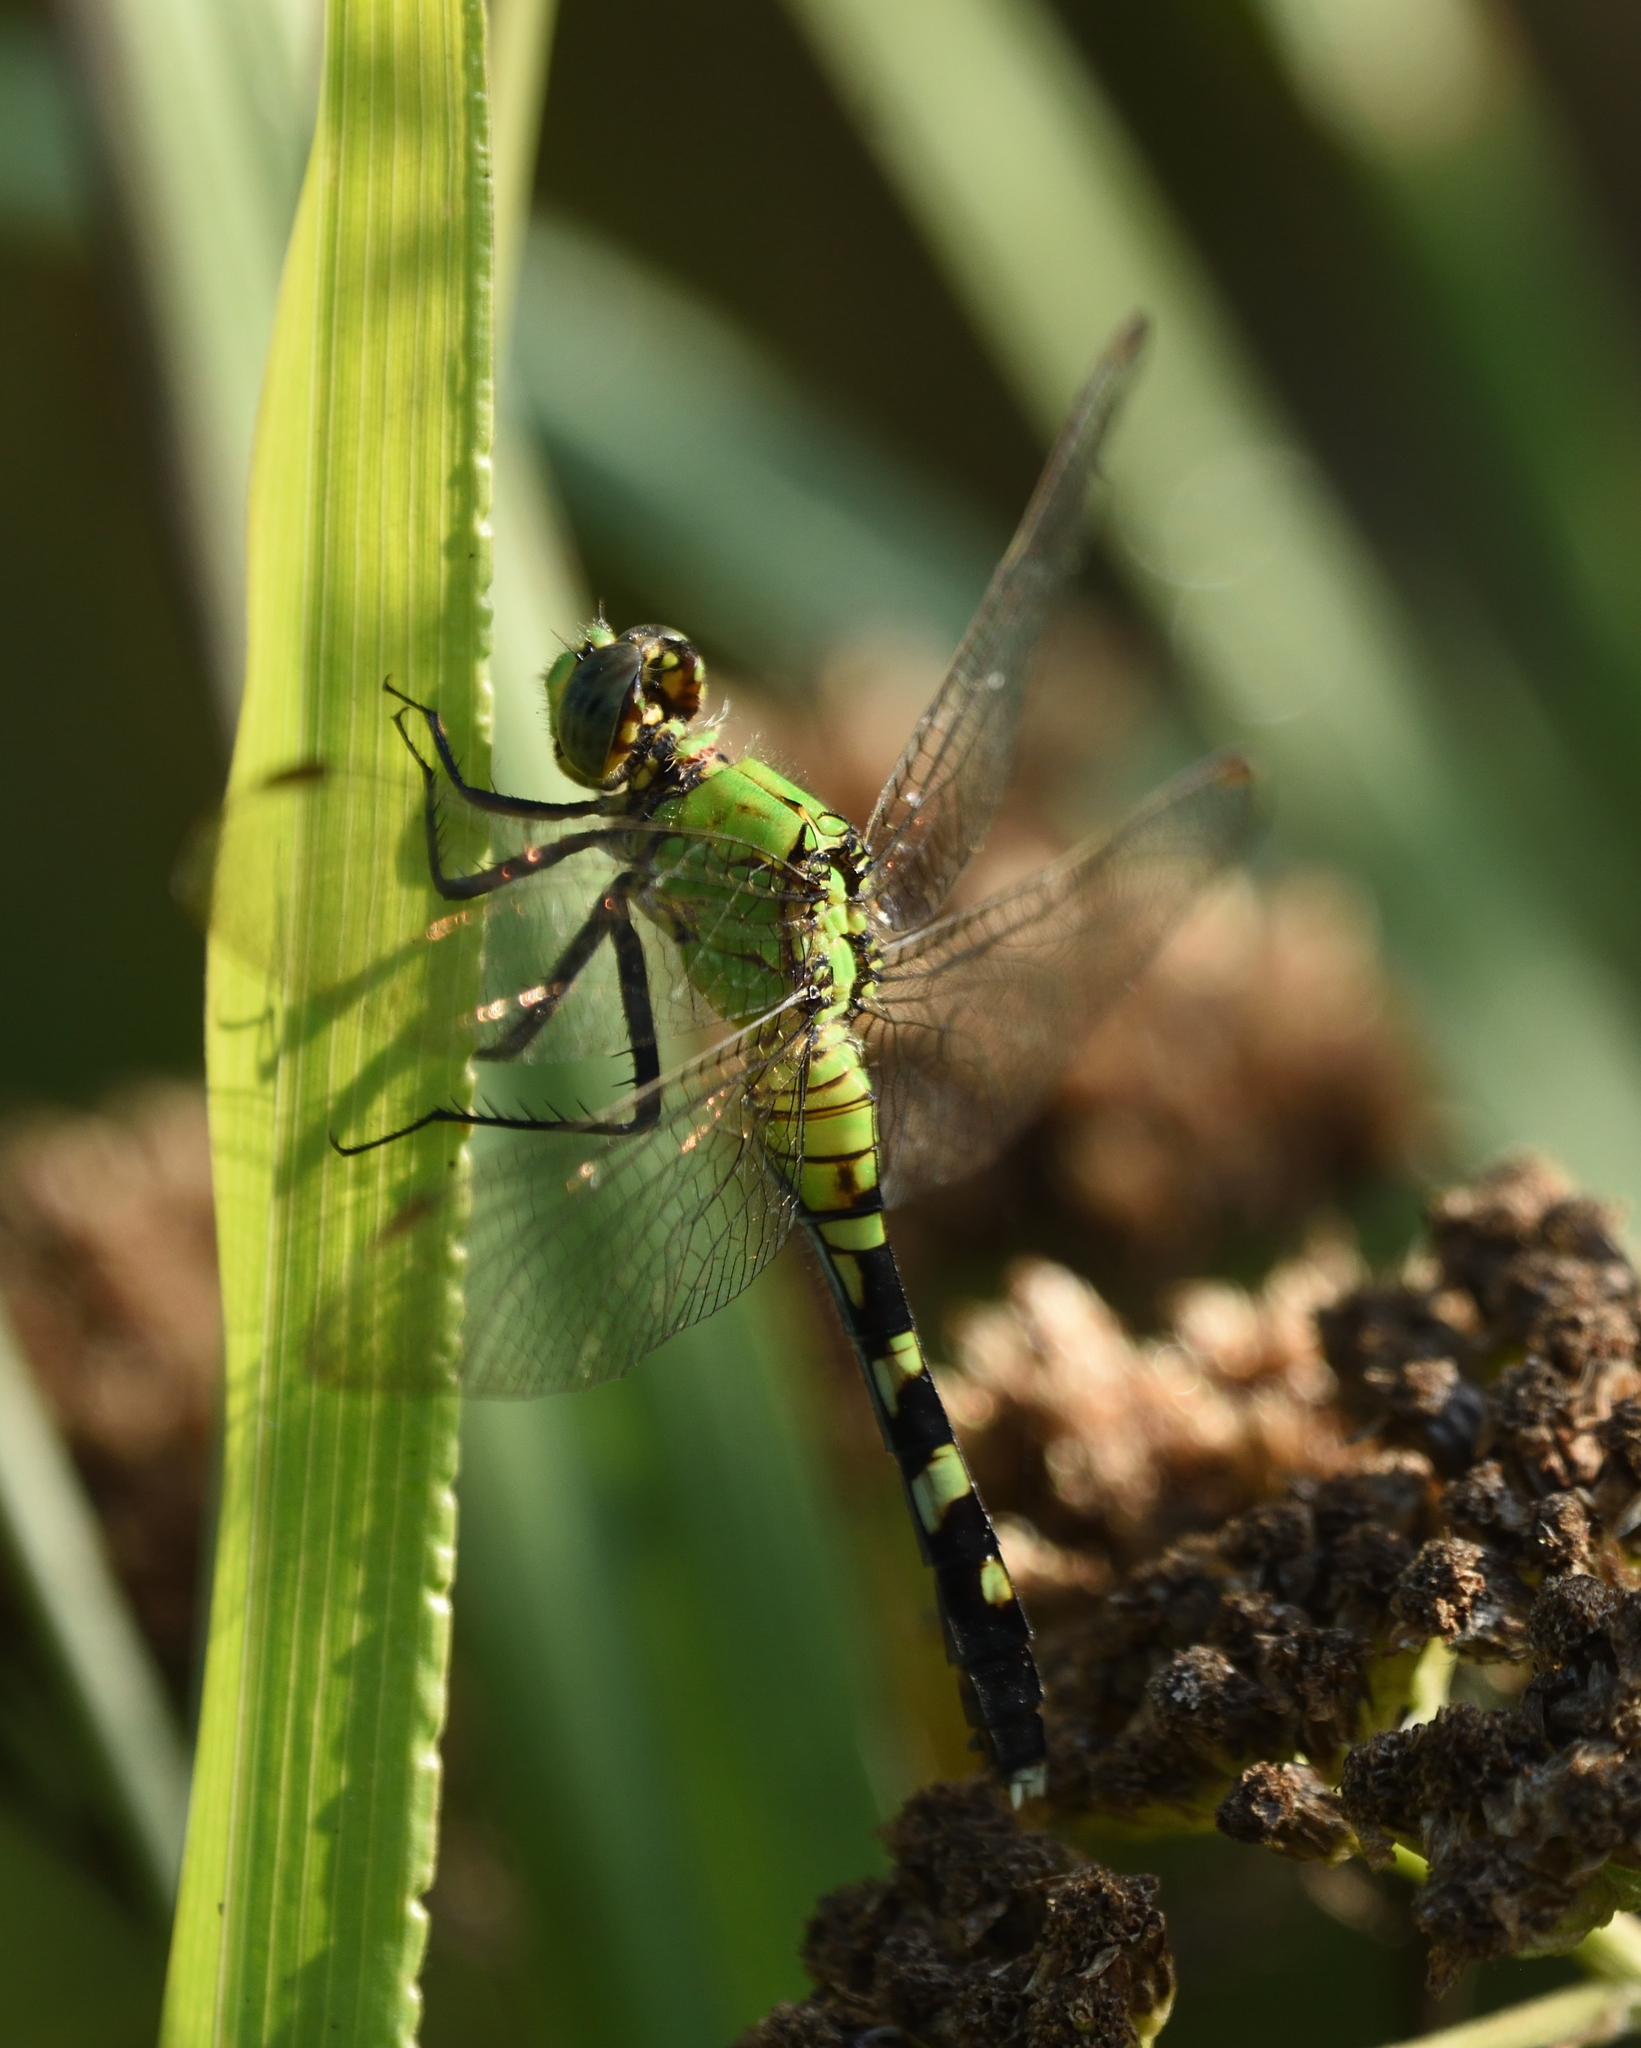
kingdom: Animalia
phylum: Arthropoda
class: Insecta
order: Odonata
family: Libellulidae
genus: Erythemis
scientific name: Erythemis simplicicollis
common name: Eastern pondhawk
